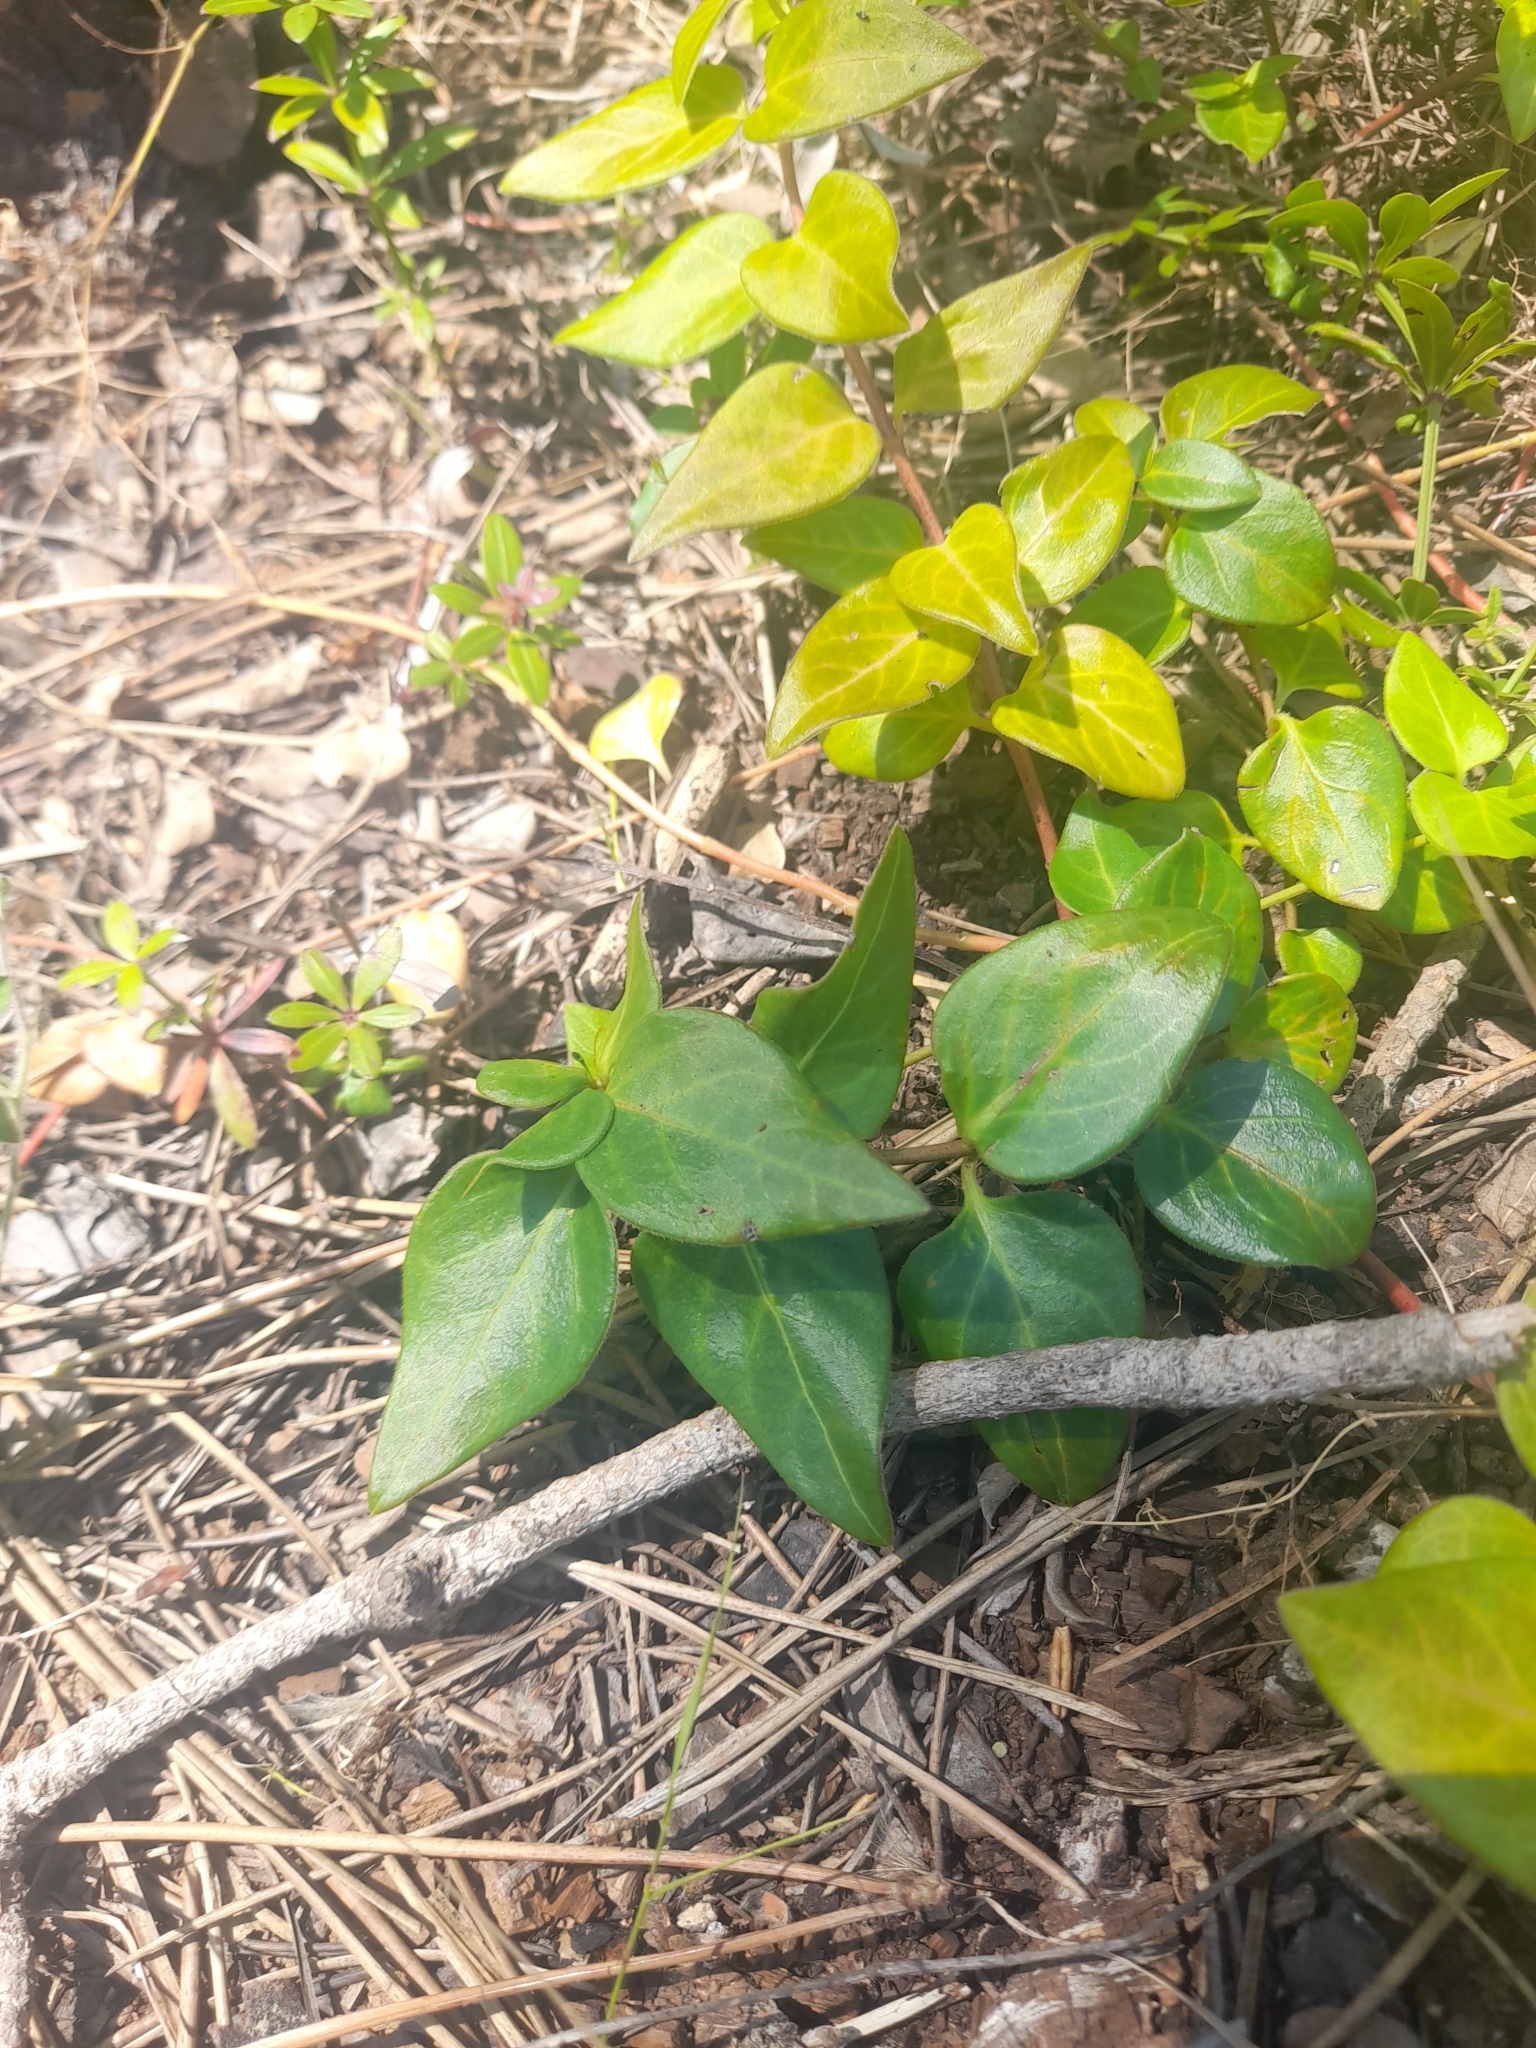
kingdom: Plantae
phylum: Tracheophyta
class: Magnoliopsida
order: Gentianales
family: Apocynaceae
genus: Vinca
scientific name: Vinca major
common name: Greater periwinkle
